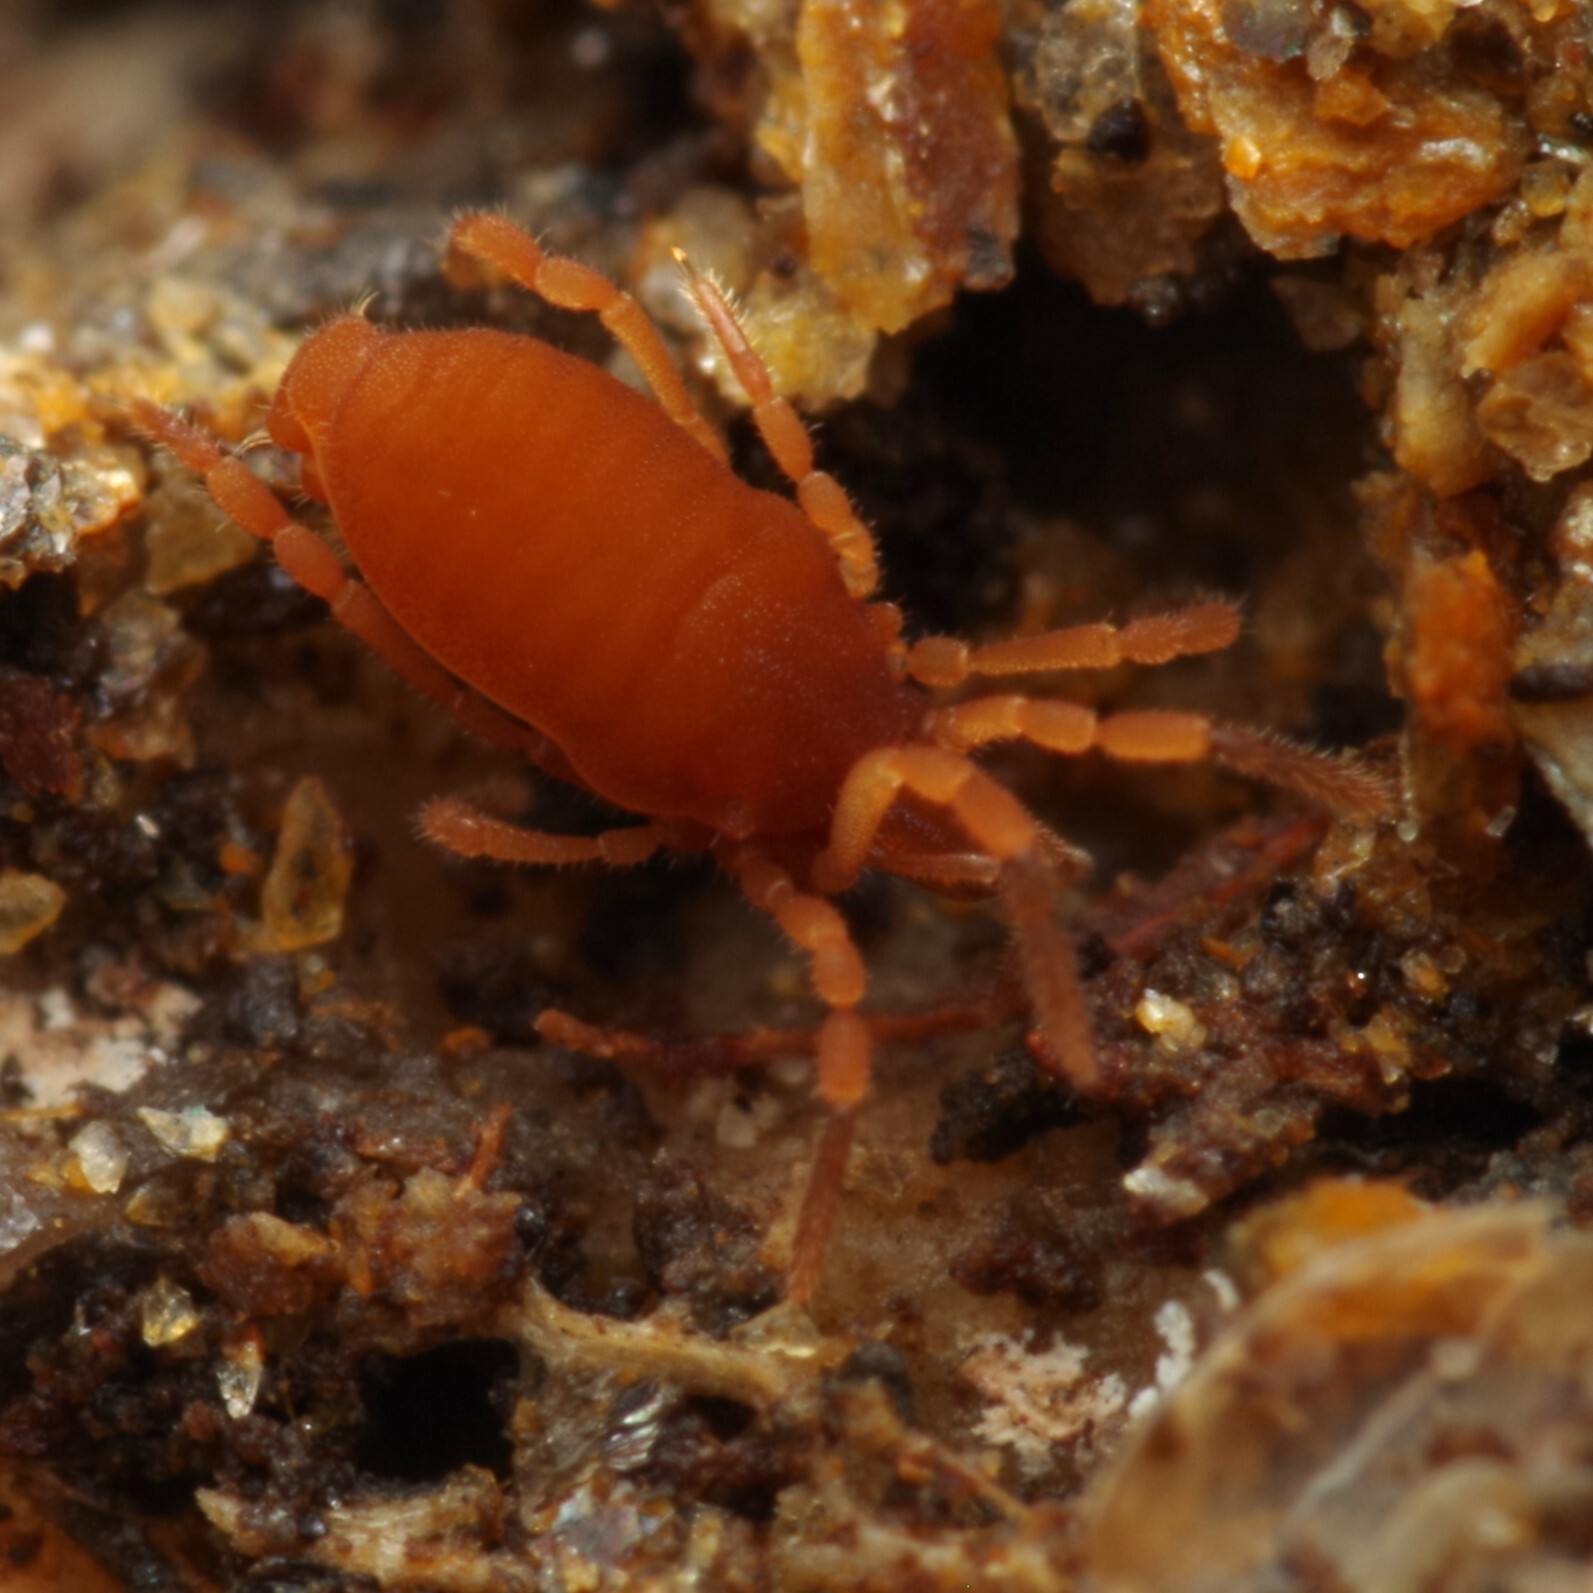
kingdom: Animalia
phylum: Arthropoda
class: Arachnida
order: Opiliones
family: Sironidae
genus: Siro
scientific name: Siro rubens
